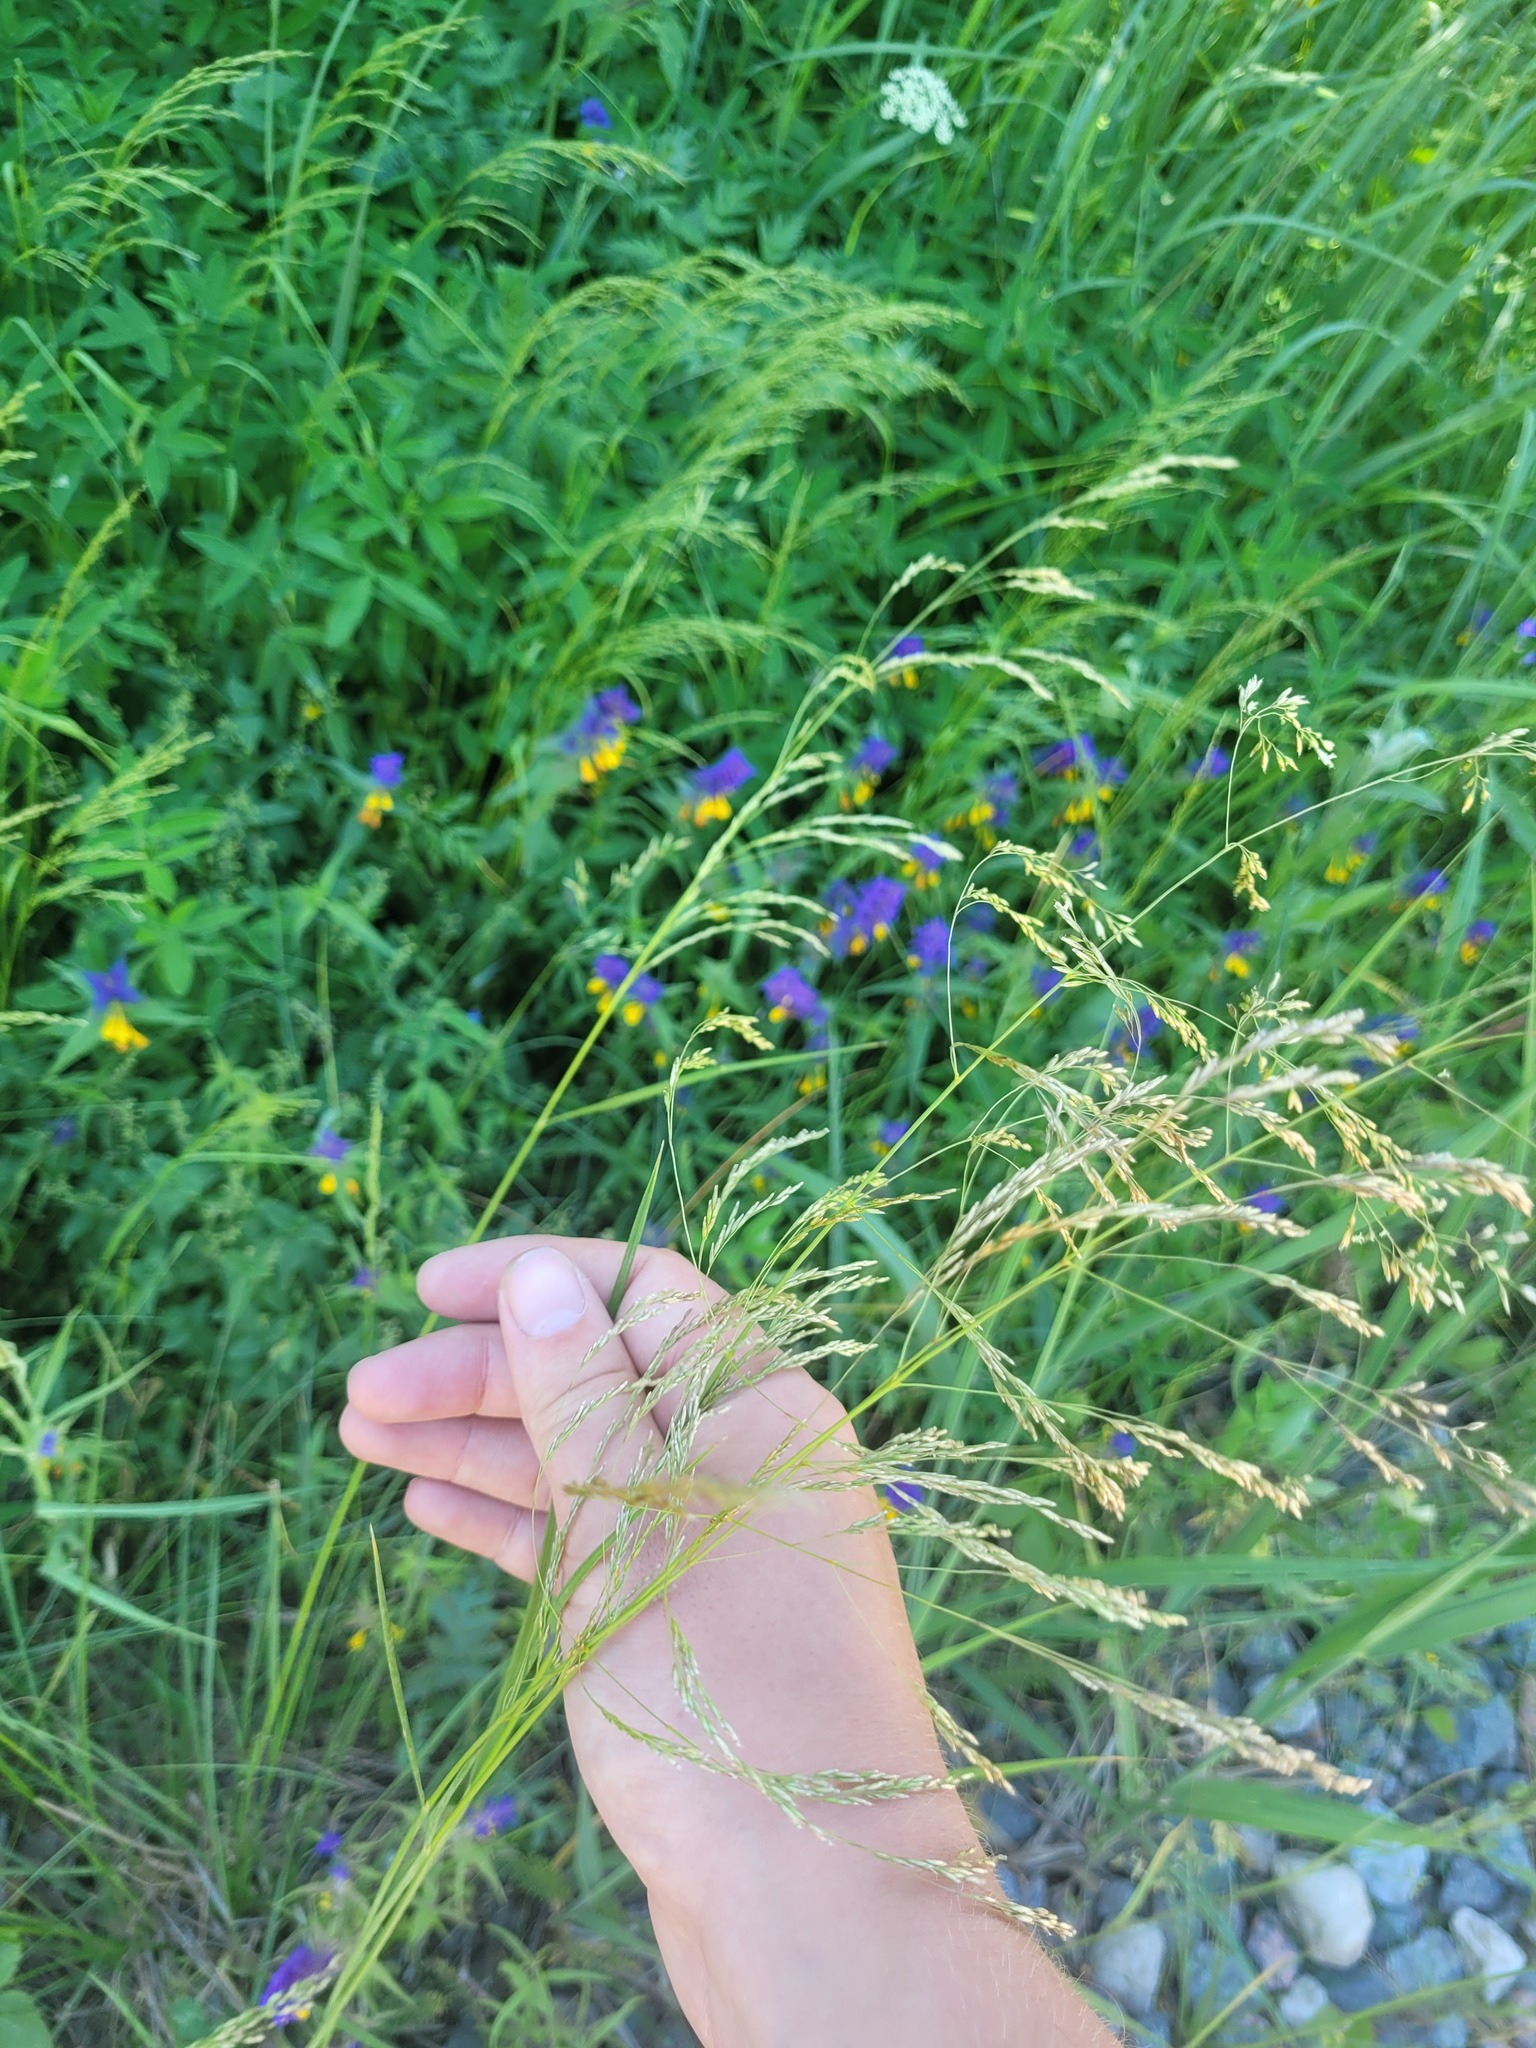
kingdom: Plantae
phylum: Tracheophyta
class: Liliopsida
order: Poales
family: Poaceae
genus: Deschampsia
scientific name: Deschampsia cespitosa
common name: Tufted hair-grass
